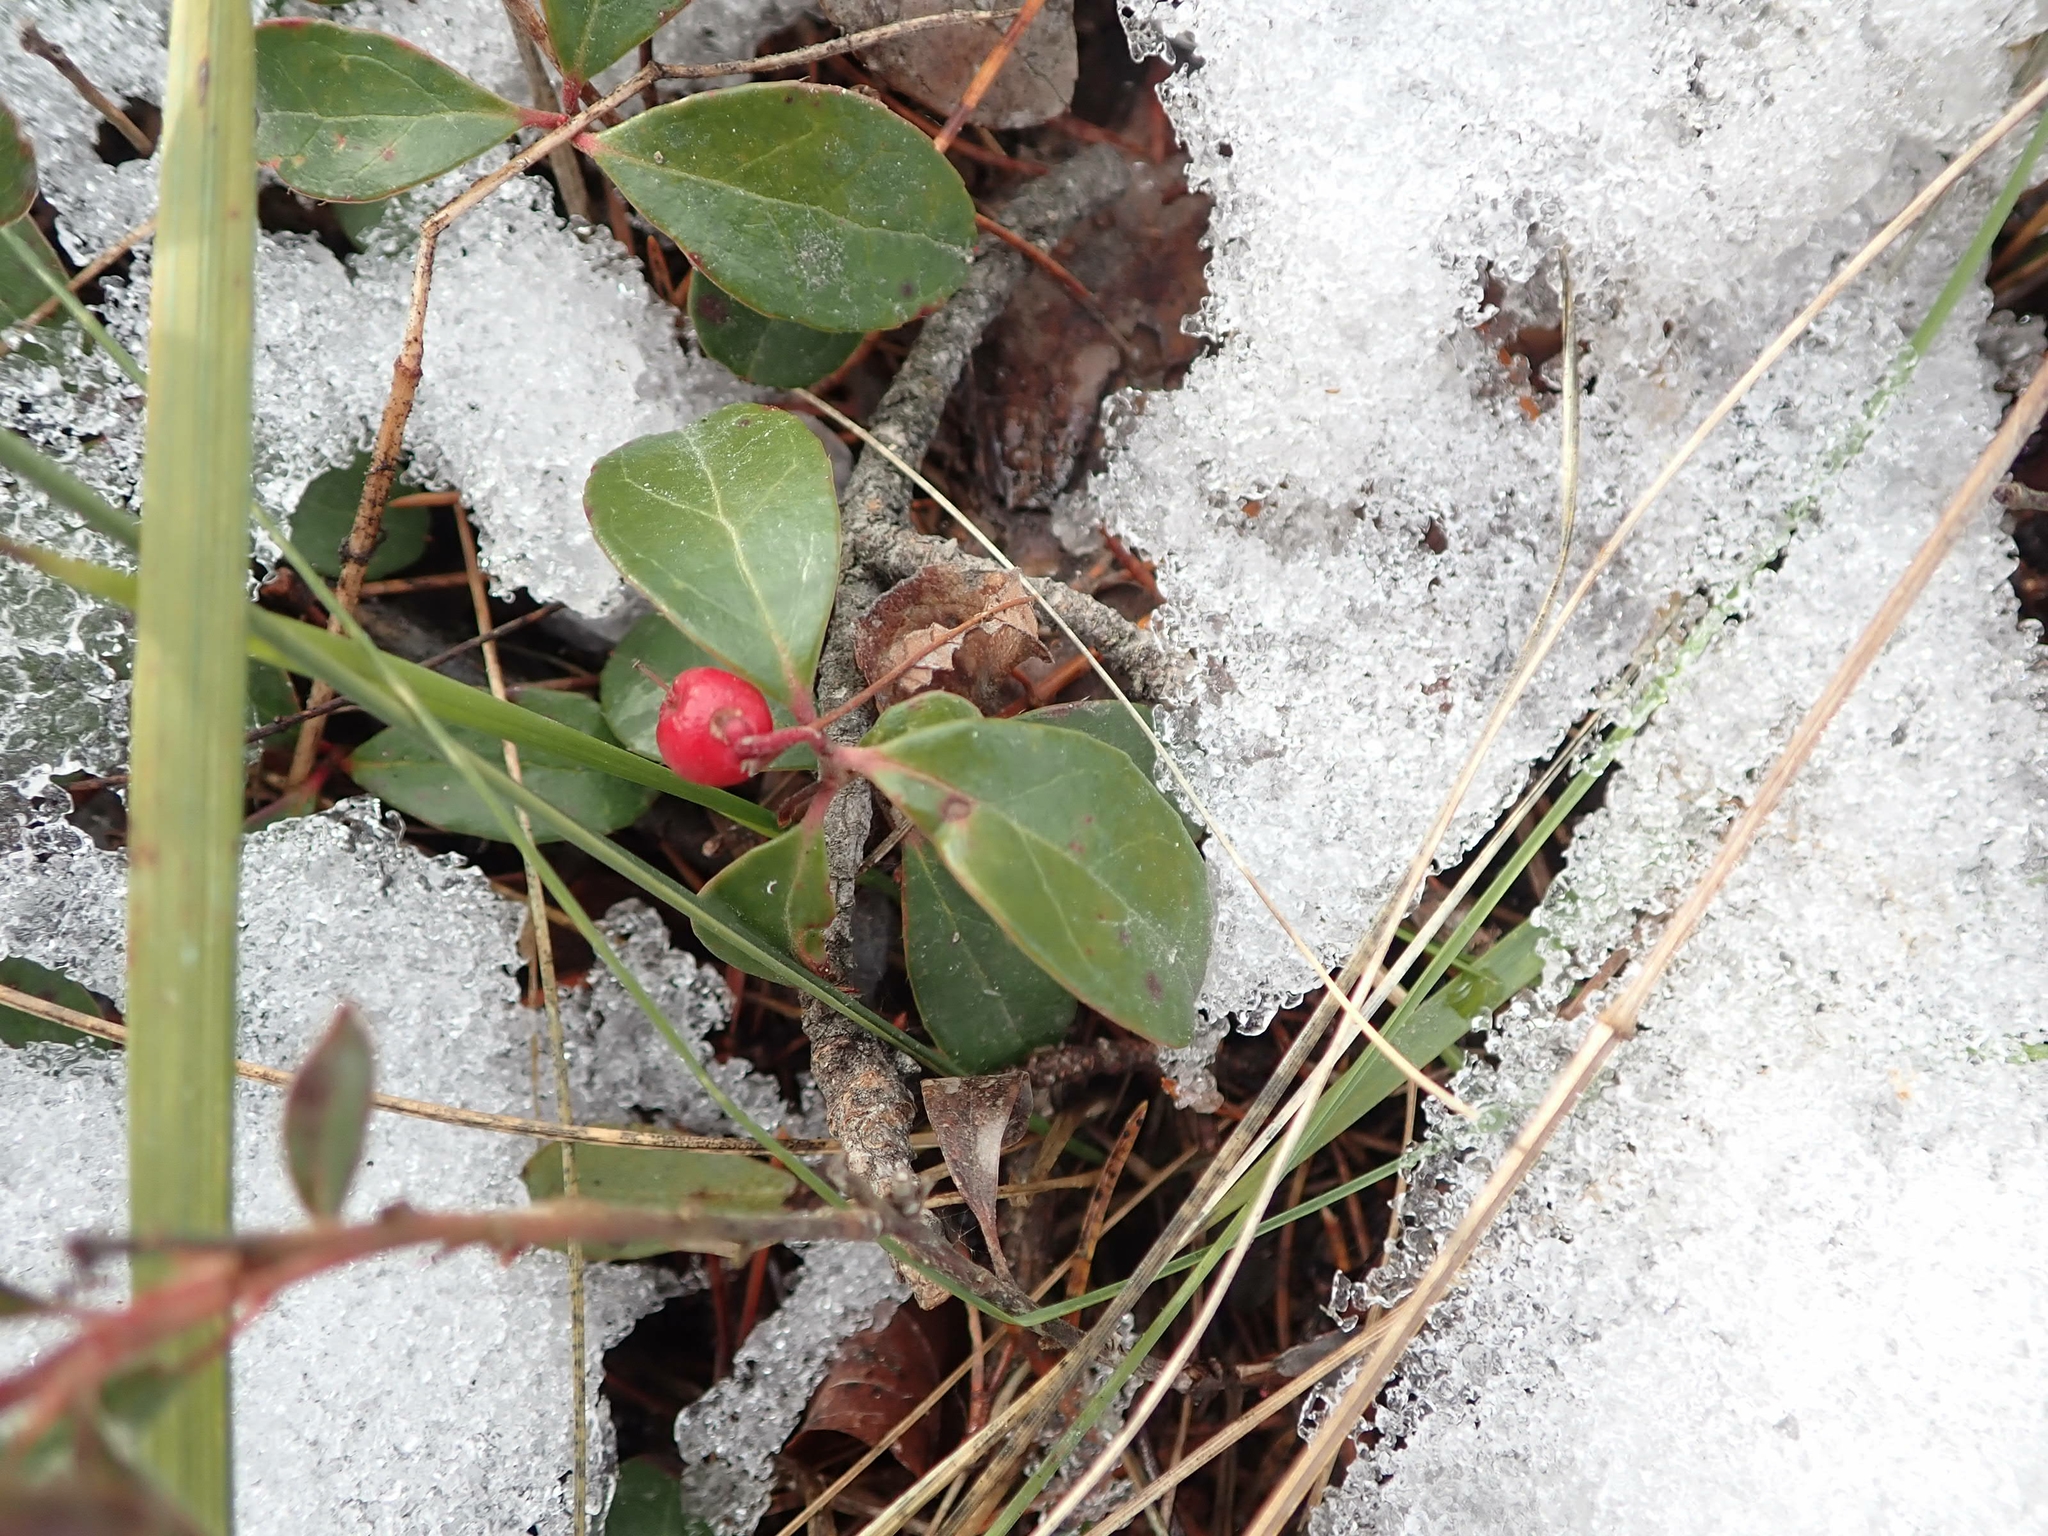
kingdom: Plantae
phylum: Tracheophyta
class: Magnoliopsida
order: Ericales
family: Ericaceae
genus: Gaultheria
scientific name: Gaultheria procumbens
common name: Checkerberry
